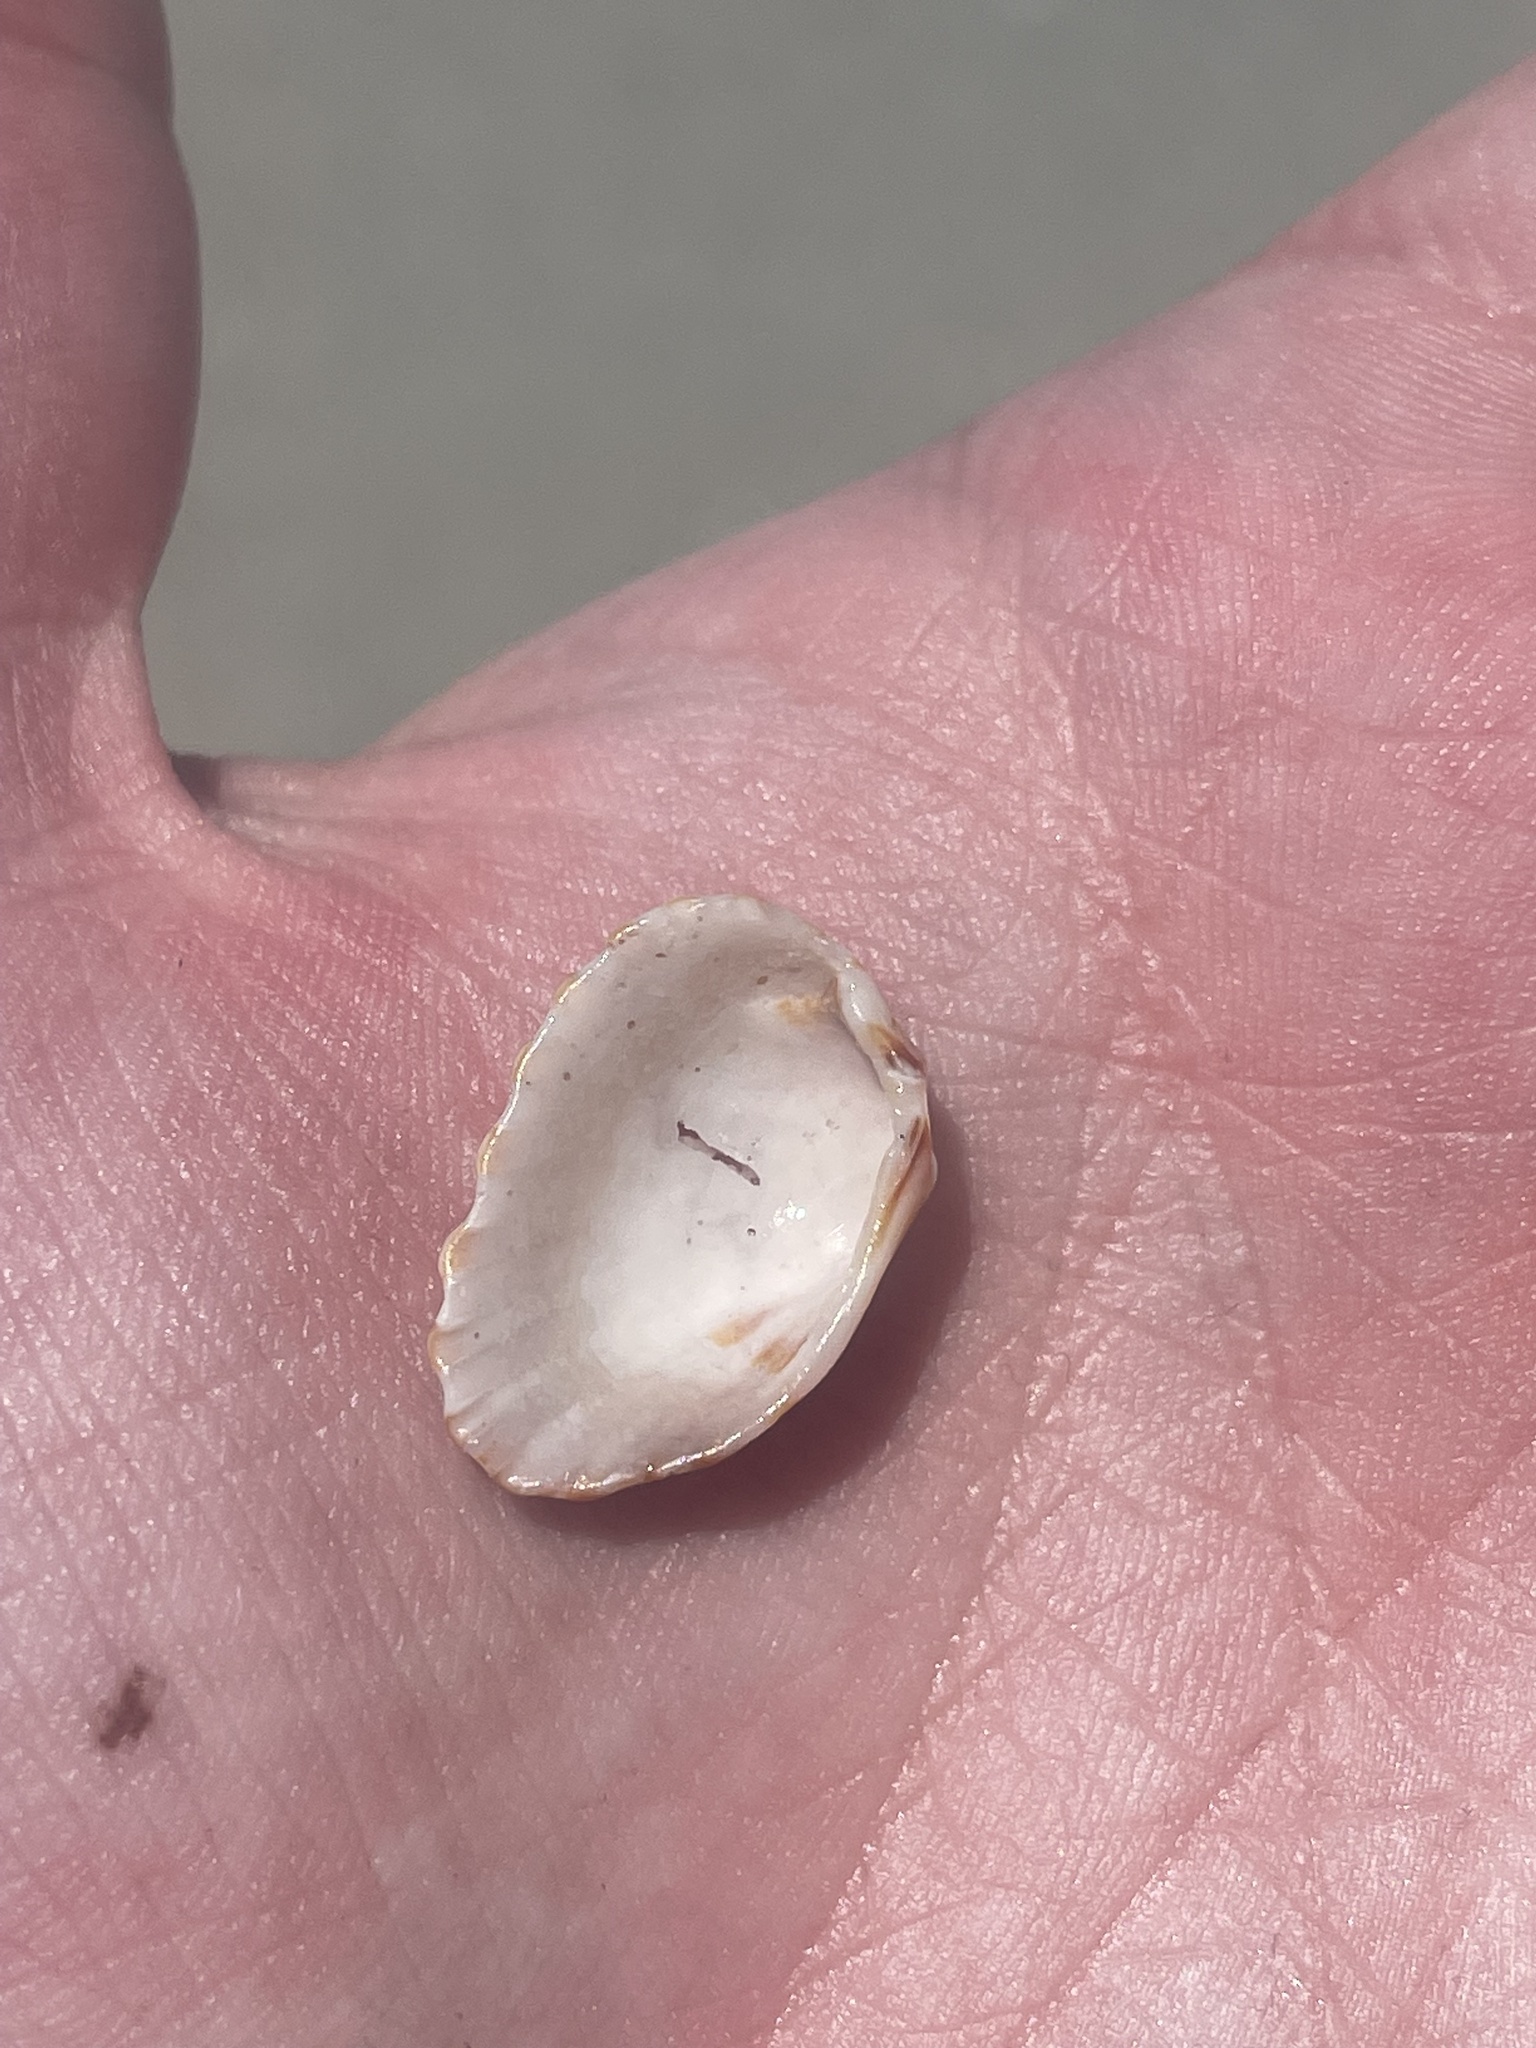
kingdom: Animalia
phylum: Mollusca
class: Bivalvia
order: Carditida
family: Carditidae
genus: Cardites
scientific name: Cardites floridanus
